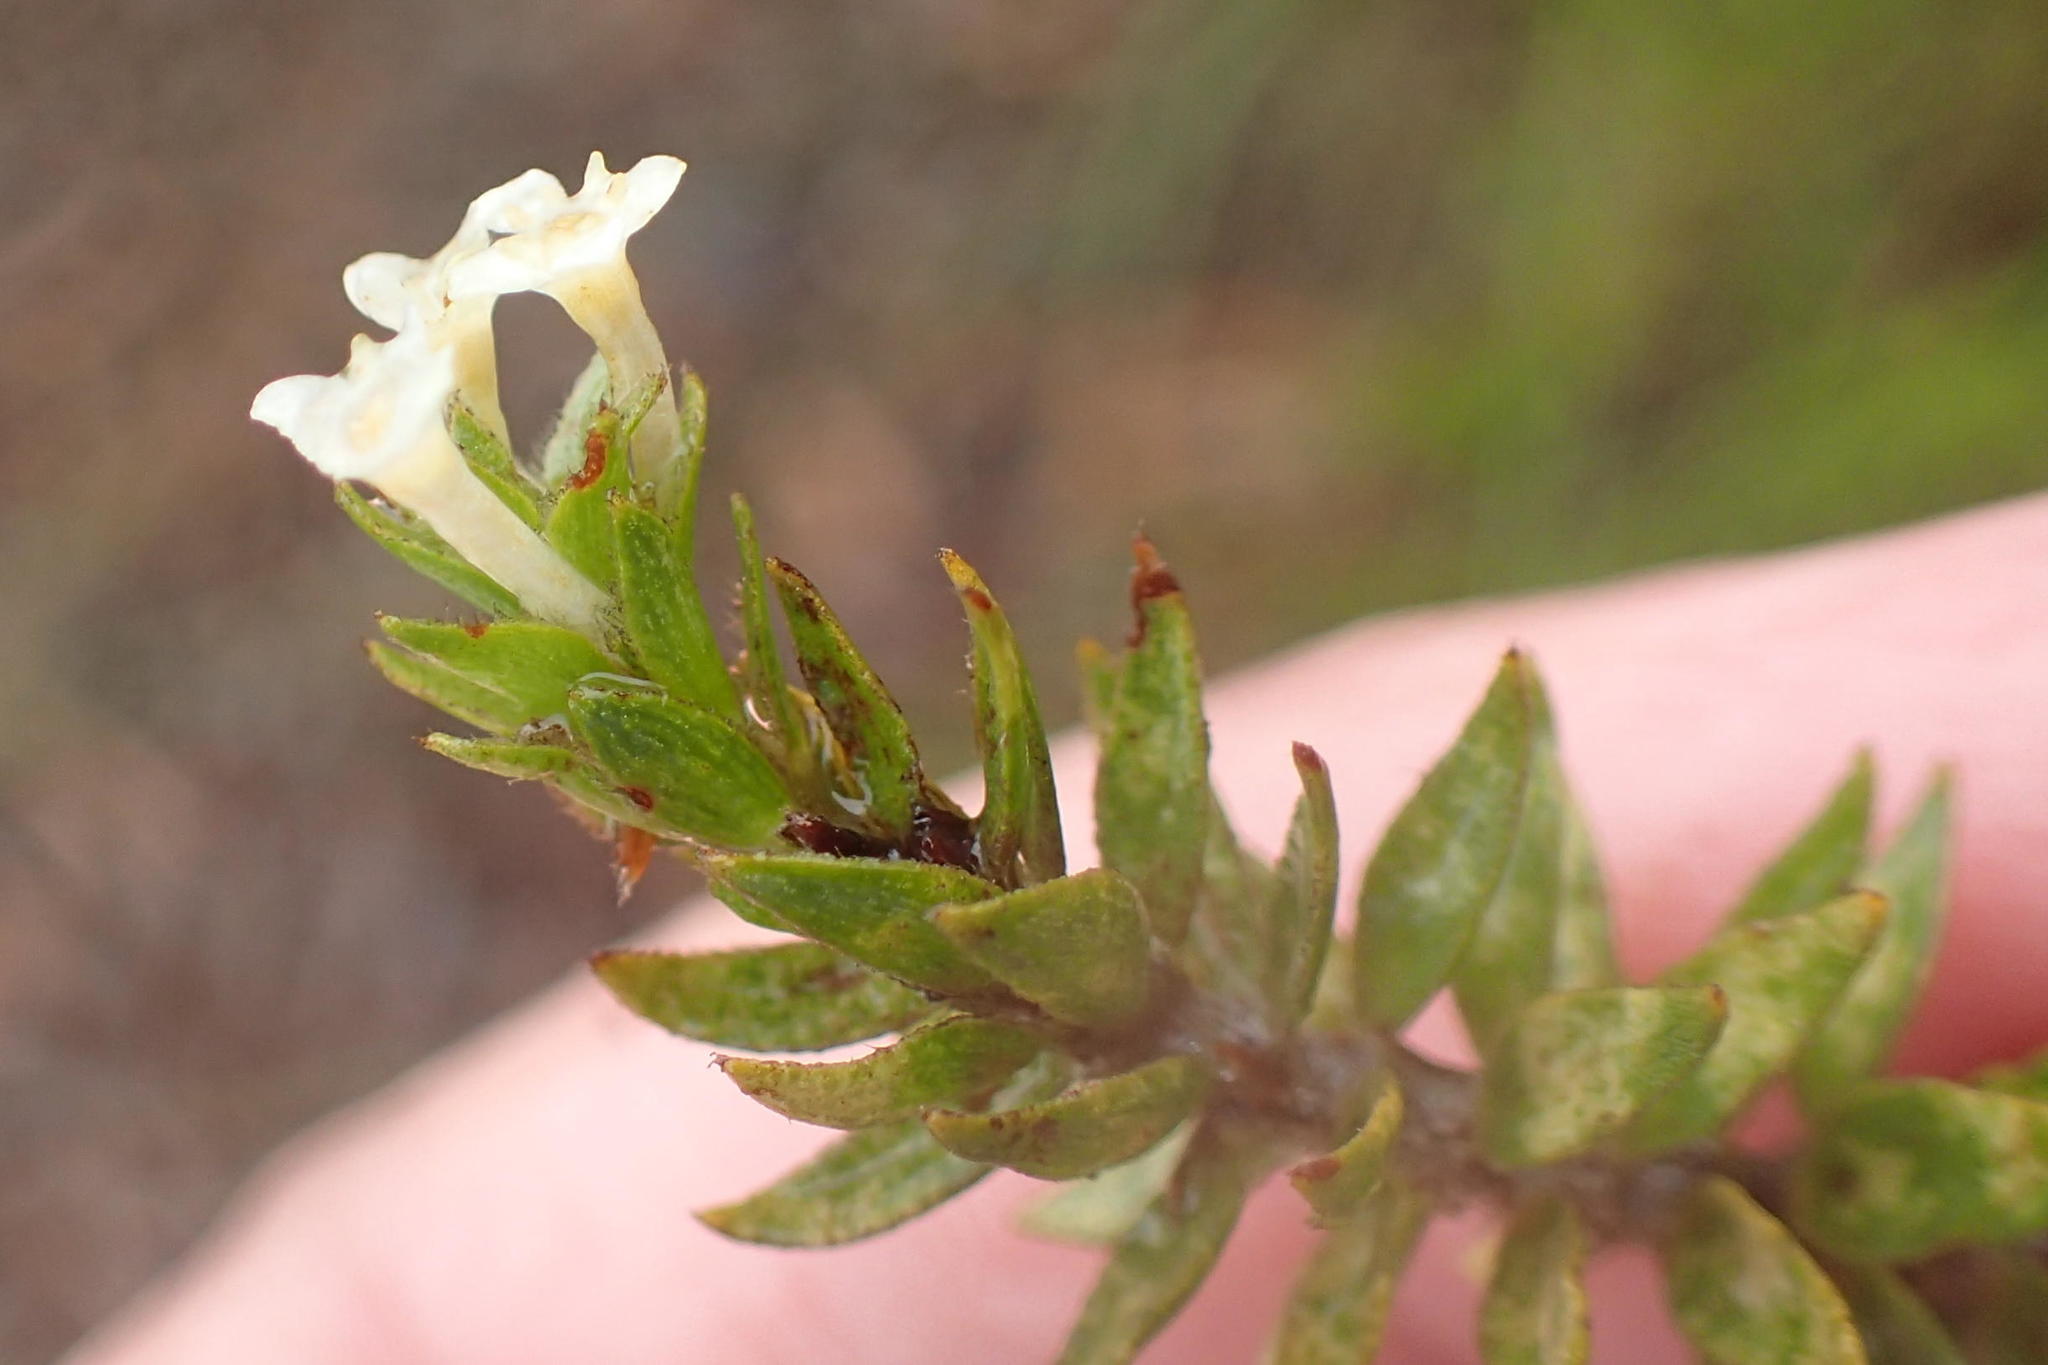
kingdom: Plantae
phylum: Tracheophyta
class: Magnoliopsida
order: Malvales
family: Thymelaeaceae
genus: Struthiola
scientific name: Struthiola dodecandra
